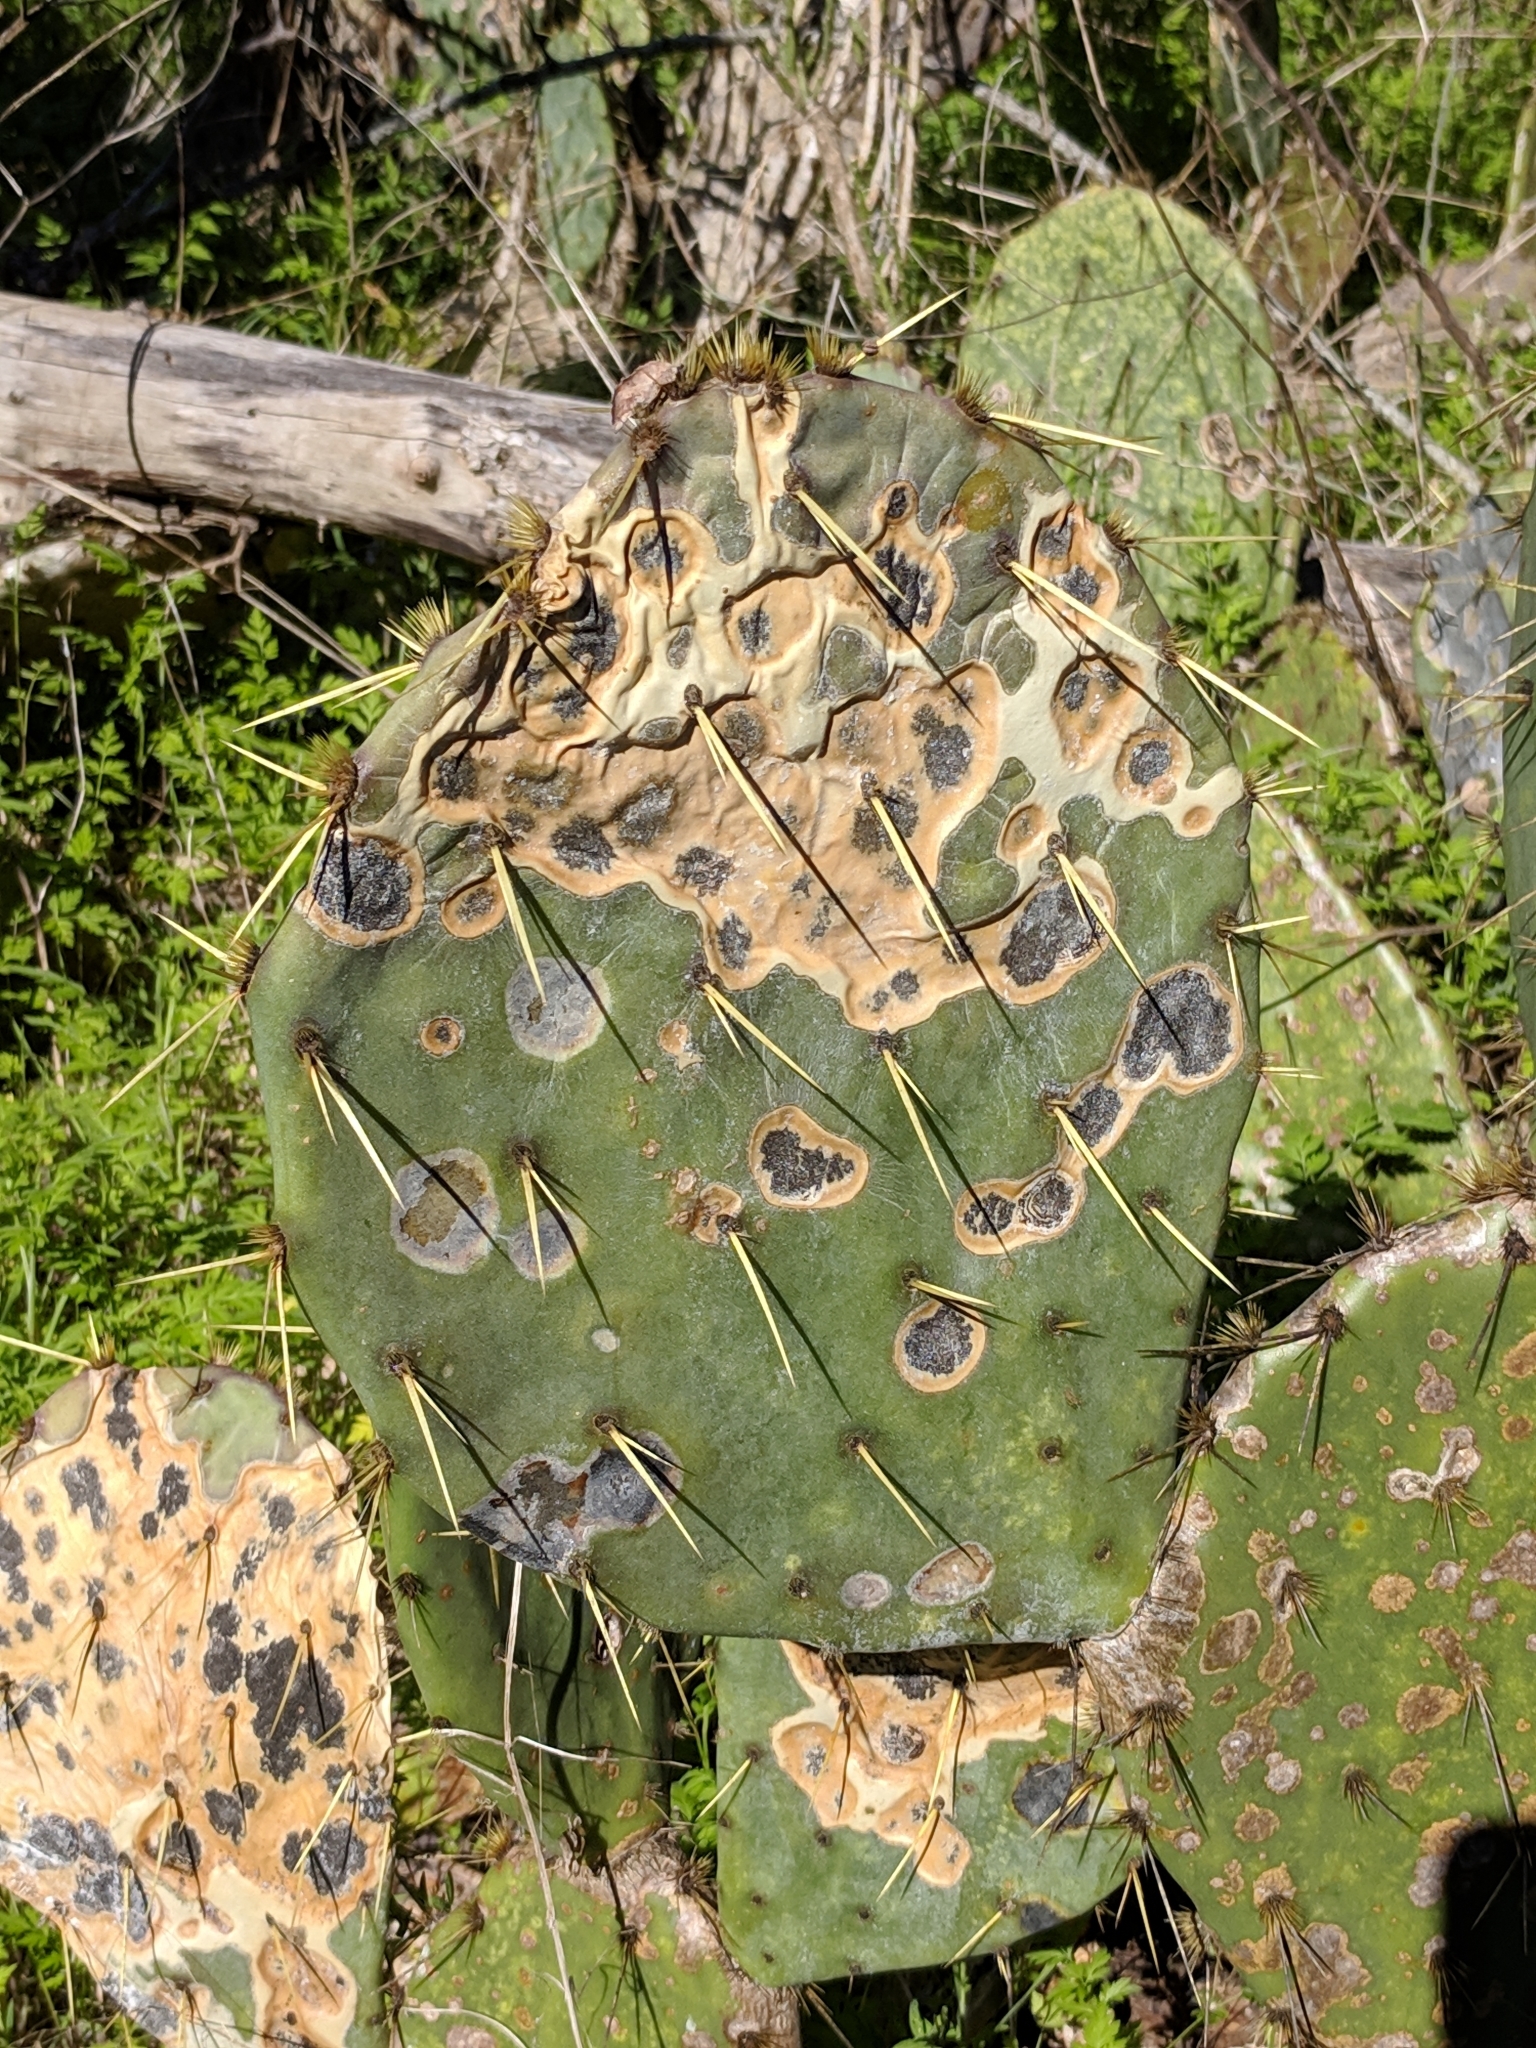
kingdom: Fungi
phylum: Ascomycota
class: Dothideomycetes
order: Botryosphaeriales
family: Phyllostictaceae
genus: Phyllosticta
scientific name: Phyllosticta concava
